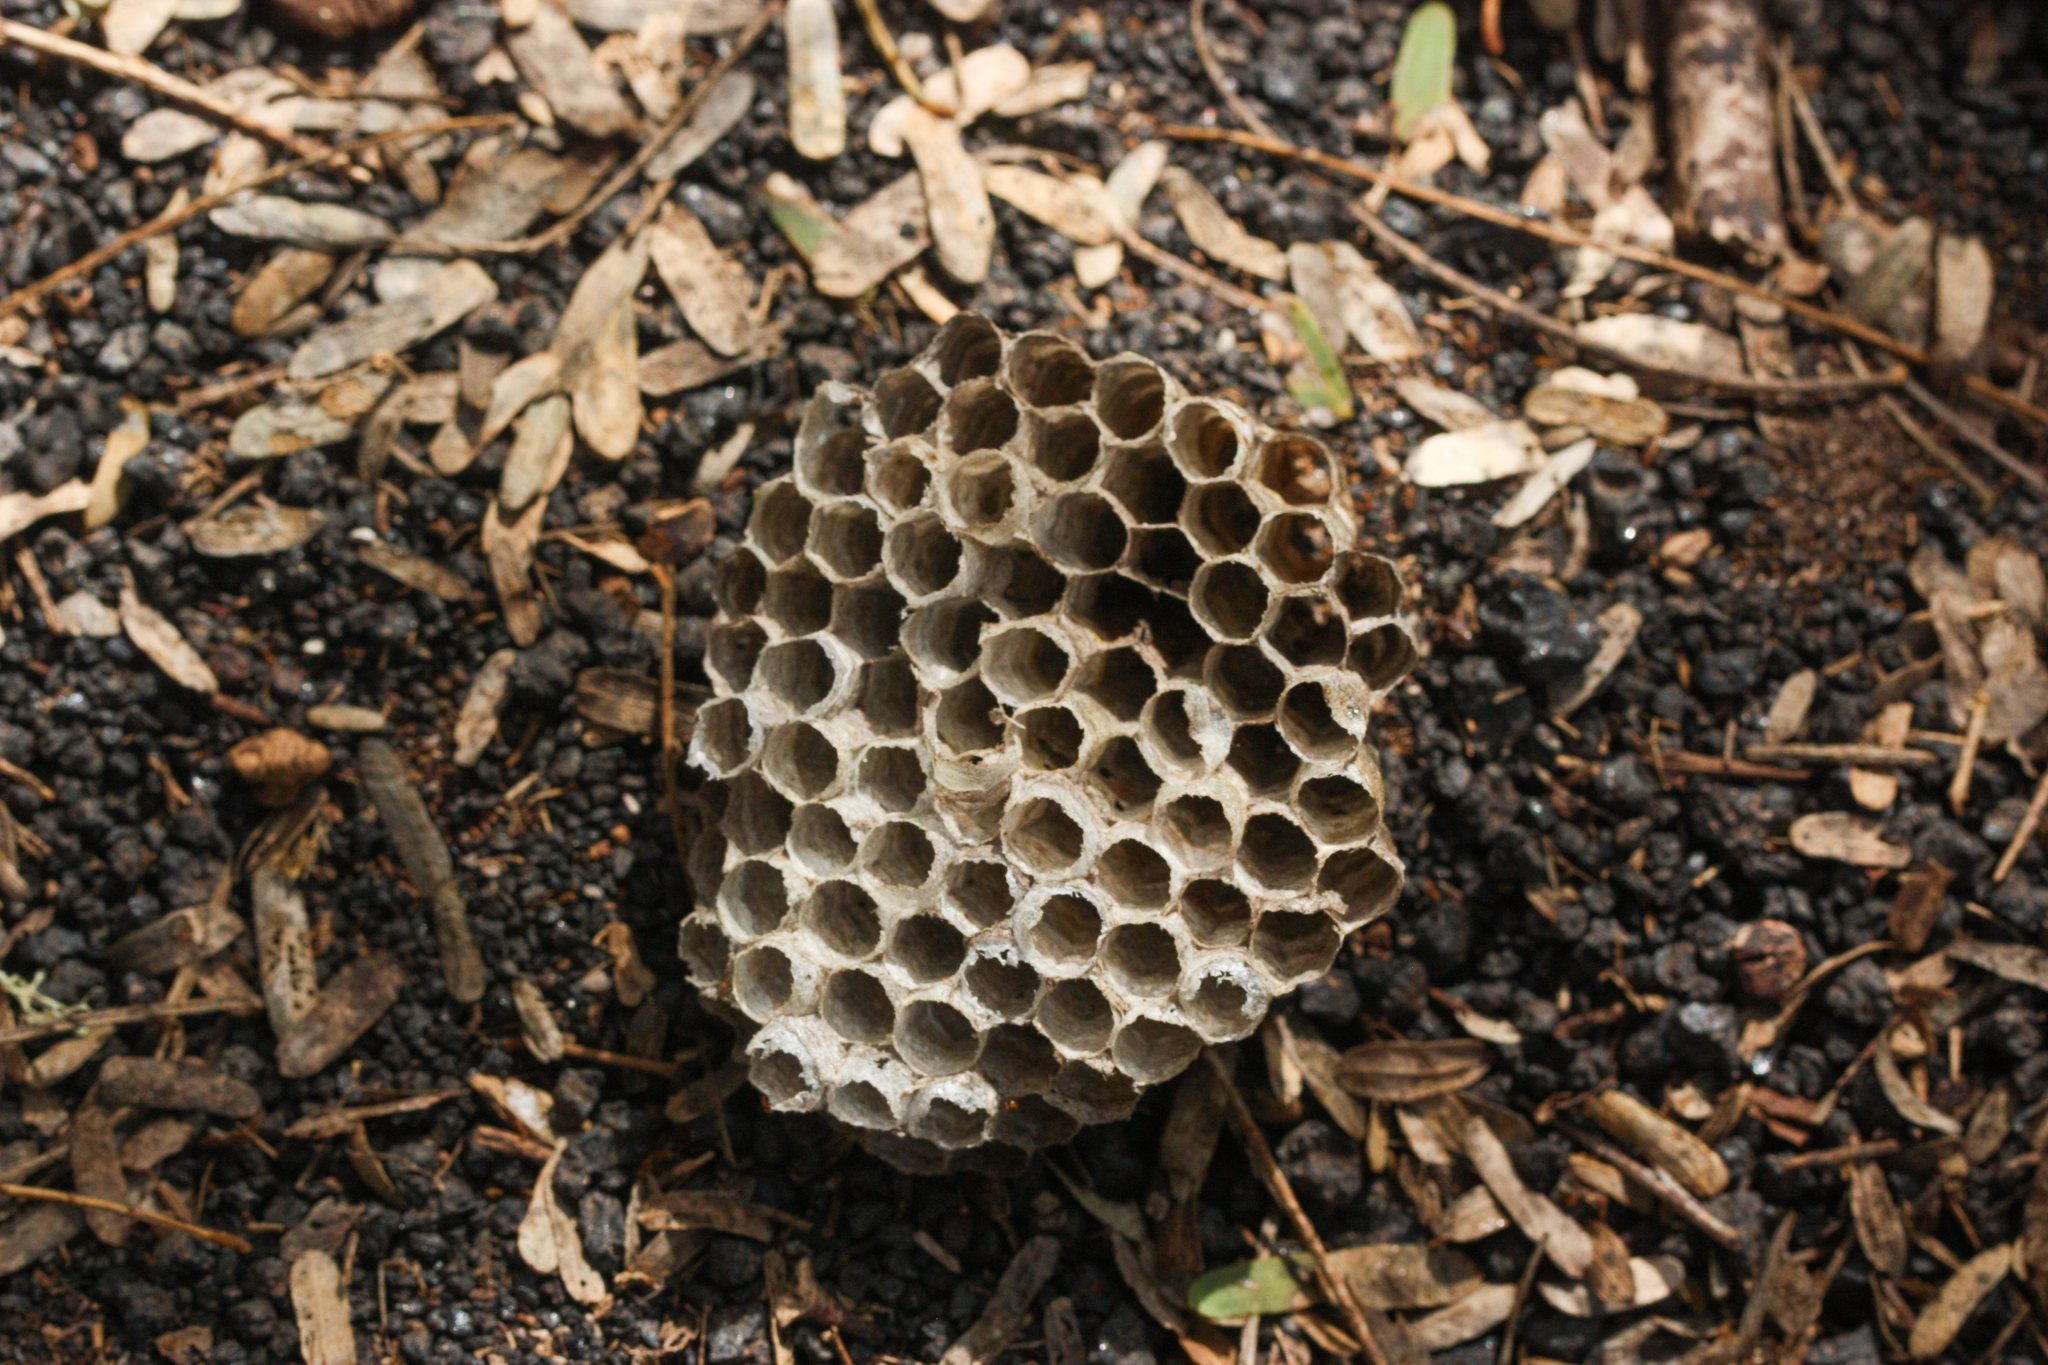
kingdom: Animalia
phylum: Arthropoda
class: Insecta
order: Hymenoptera
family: Eumenidae
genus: Polistes
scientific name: Polistes versicolor
